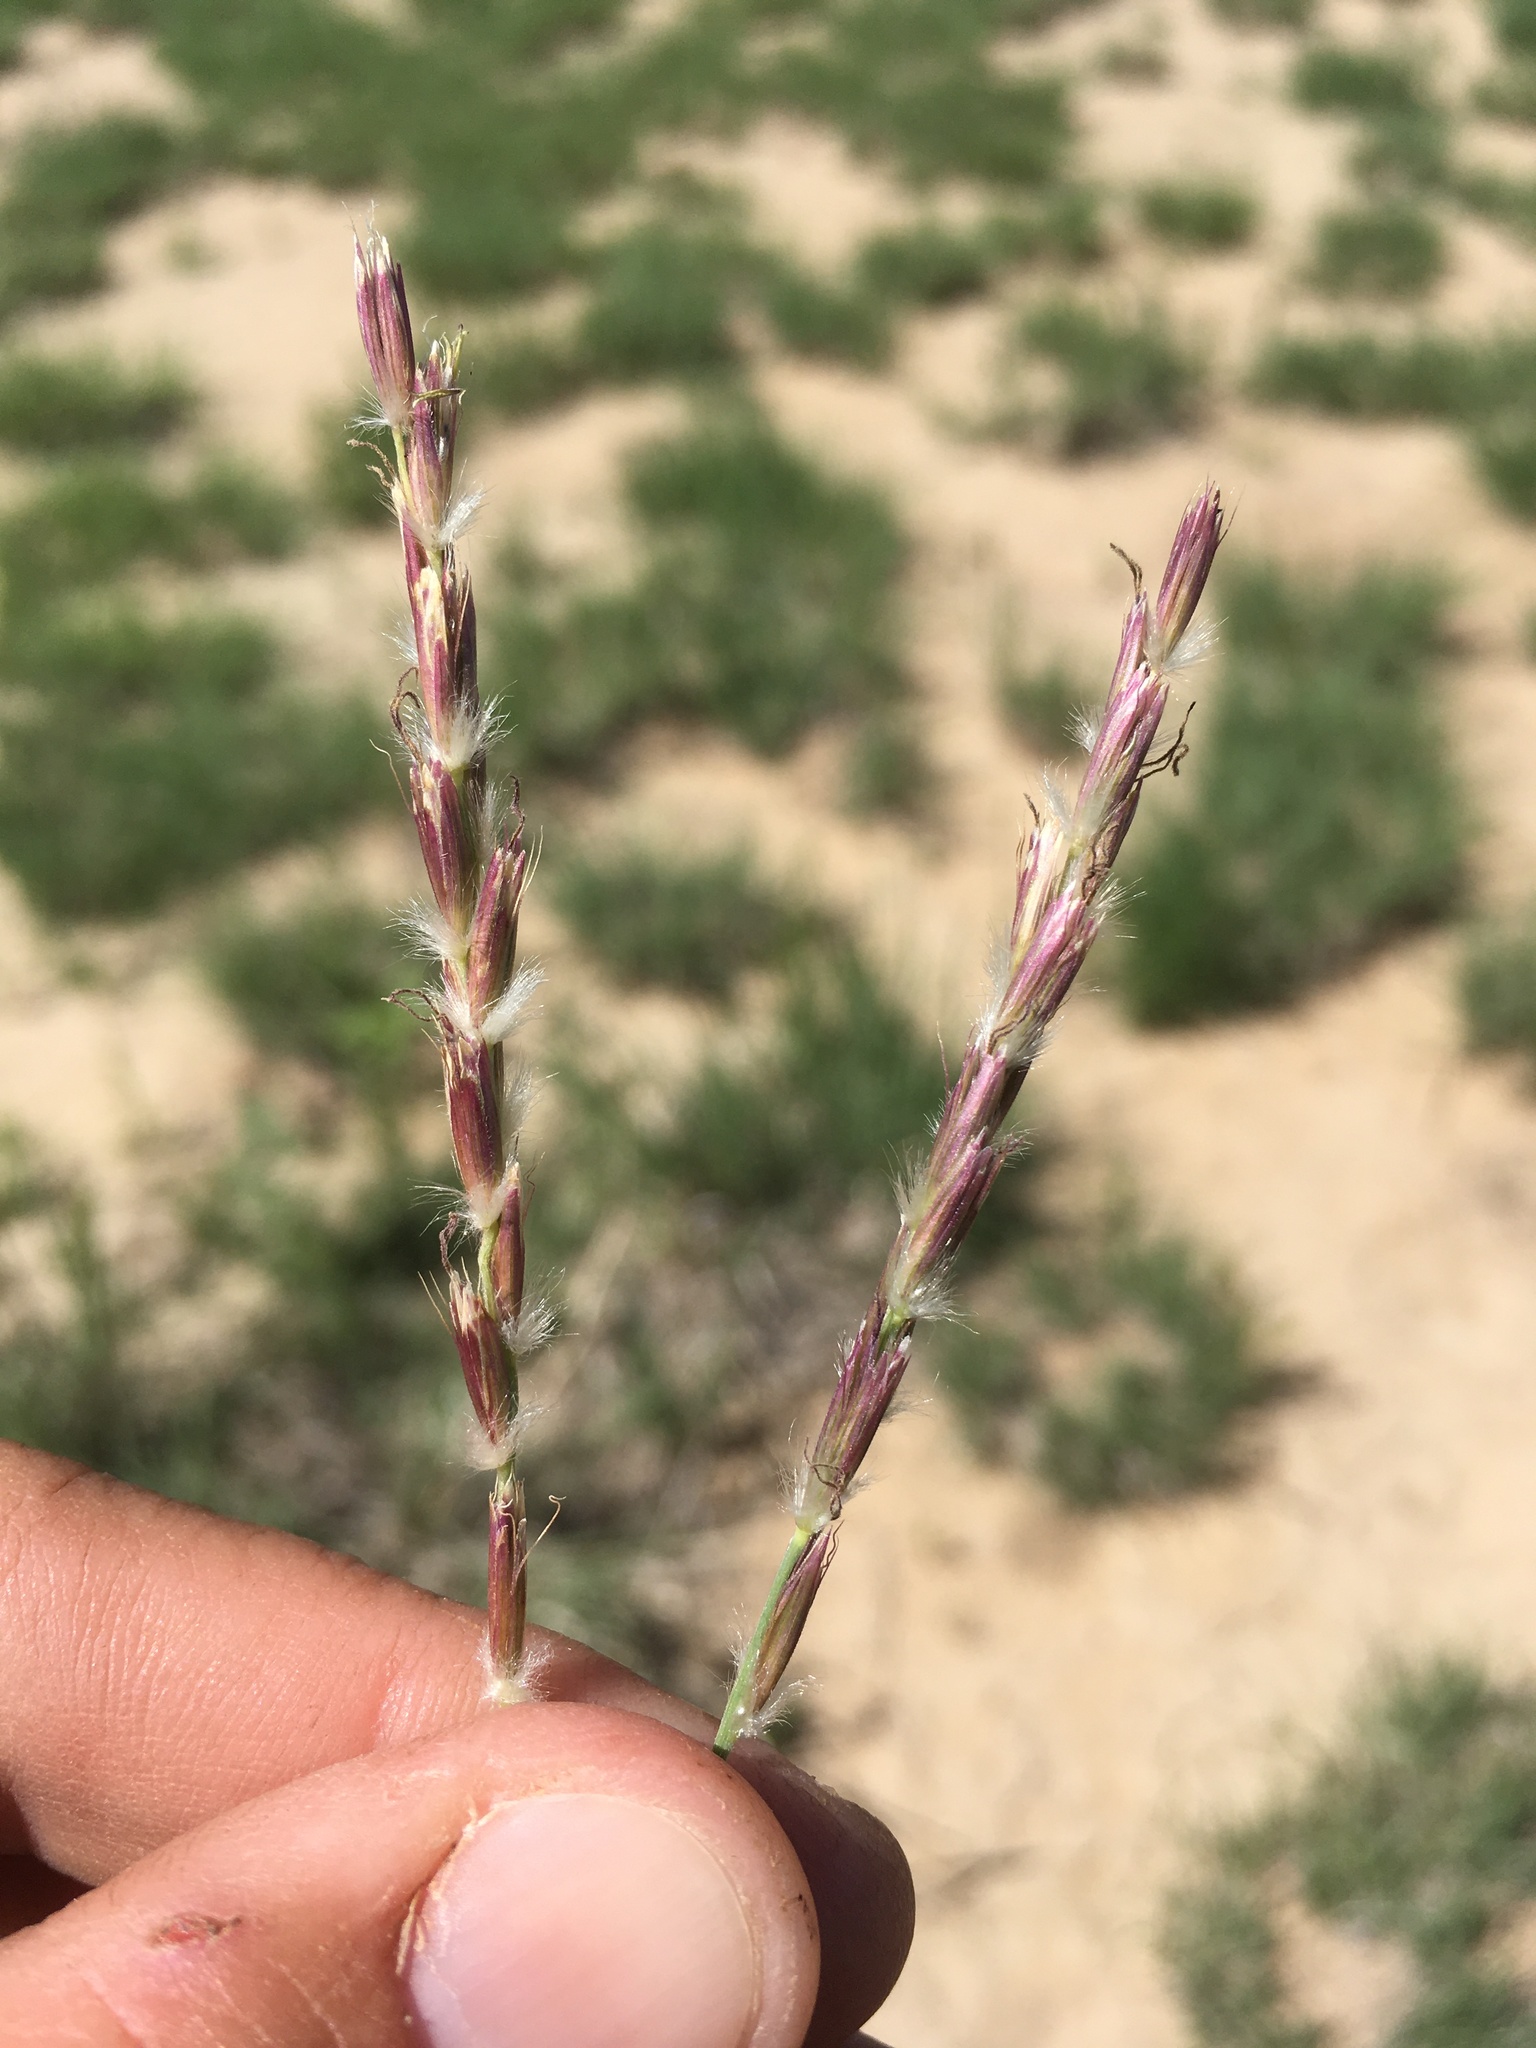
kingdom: Plantae
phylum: Tracheophyta
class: Liliopsida
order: Poales
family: Poaceae
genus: Hilaria
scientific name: Hilaria jamesii
